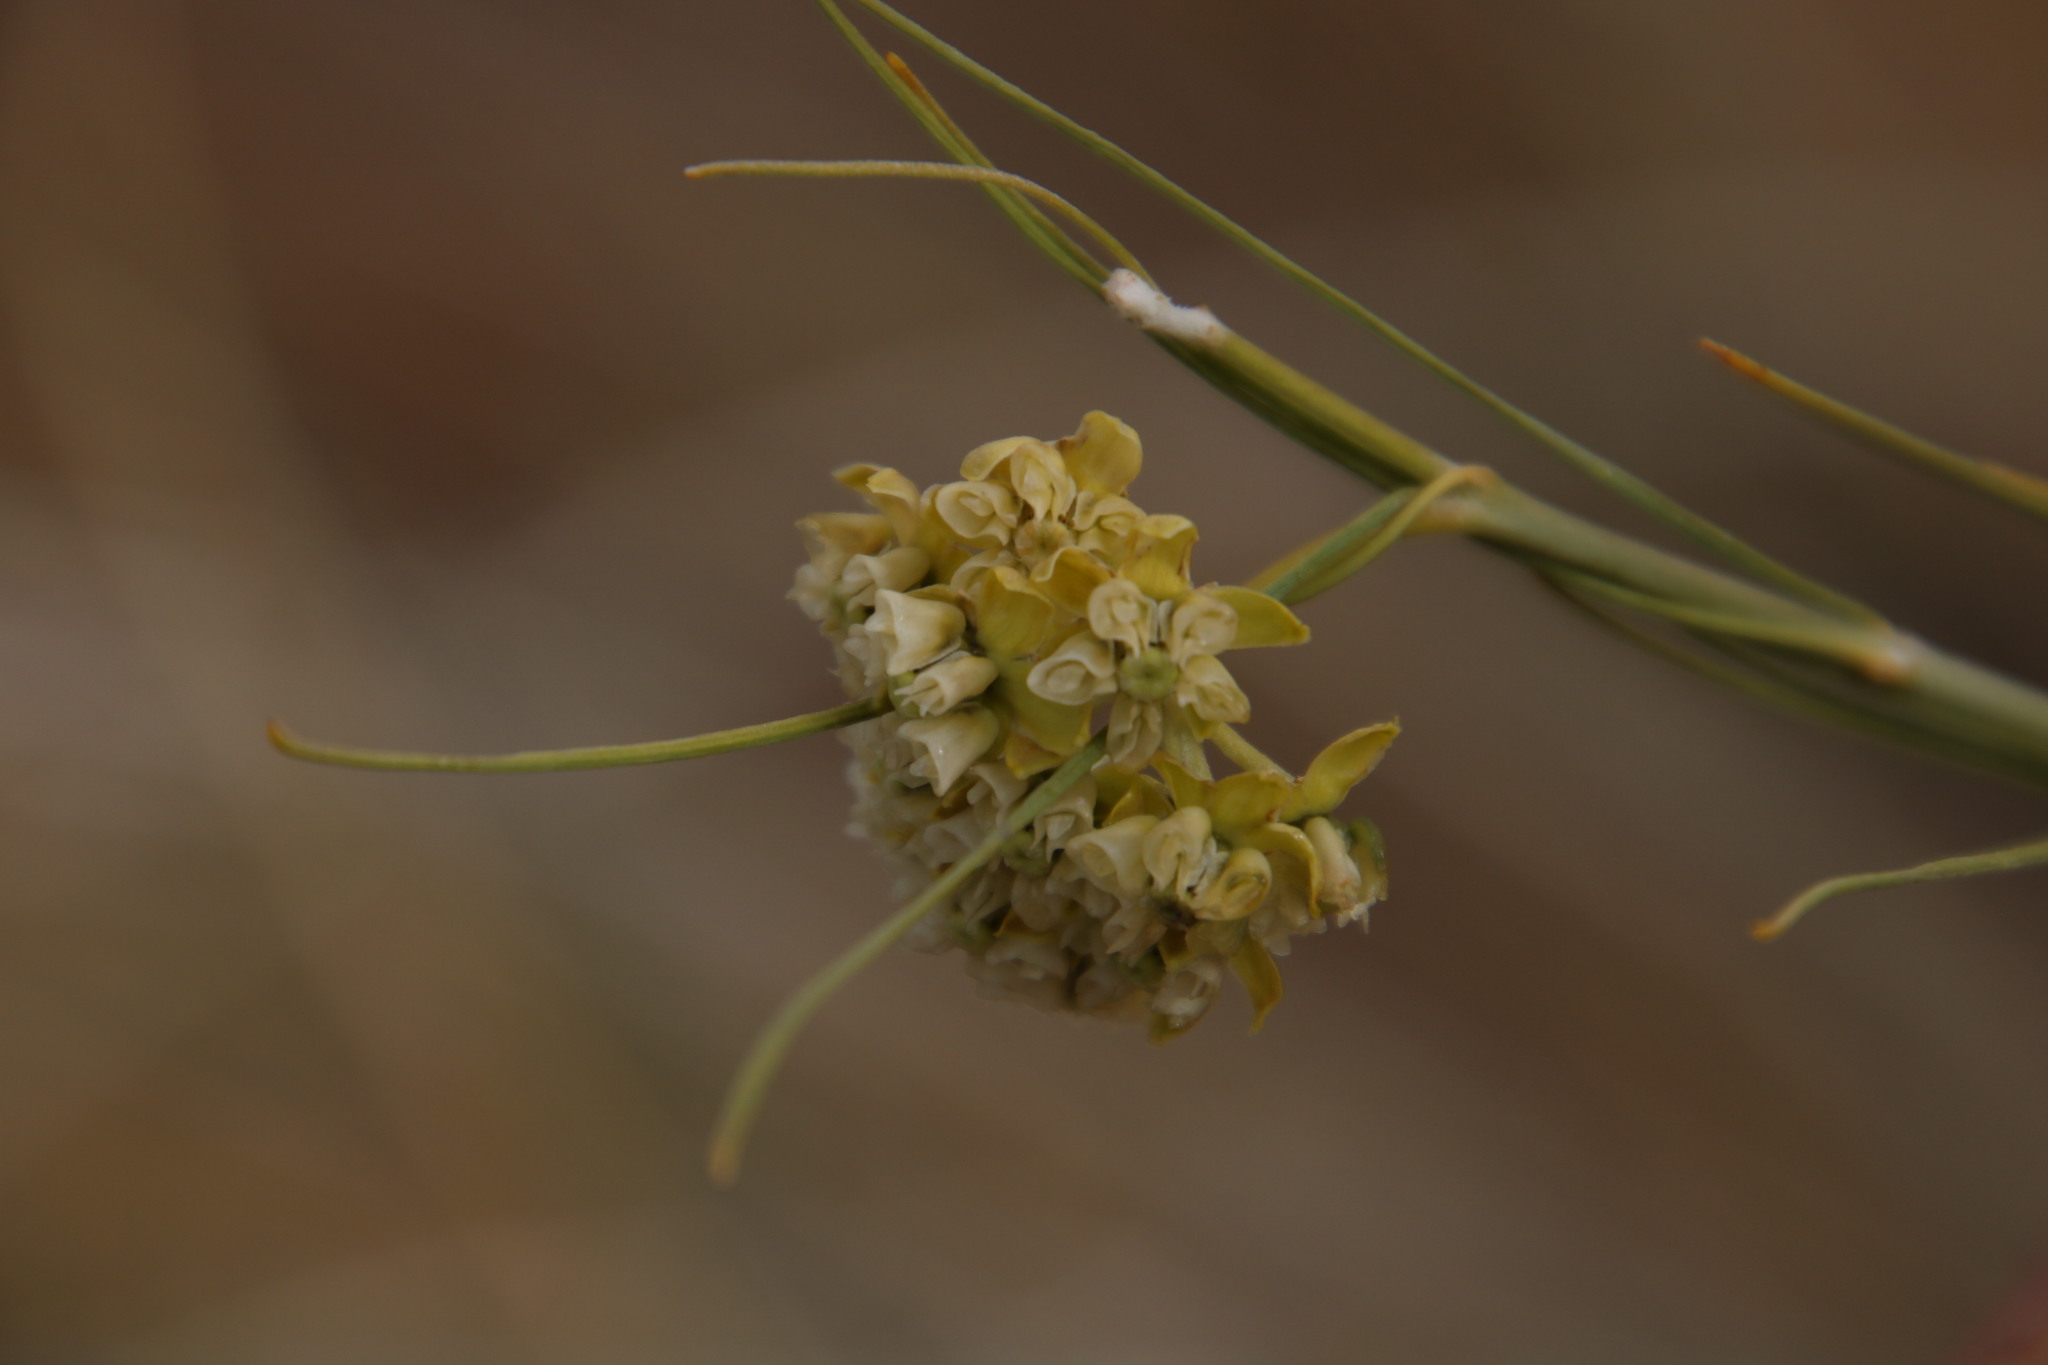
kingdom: Plantae
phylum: Tracheophyta
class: Magnoliopsida
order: Gentianales
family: Apocynaceae
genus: Gomphocarpus
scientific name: Gomphocarpus filiformis
